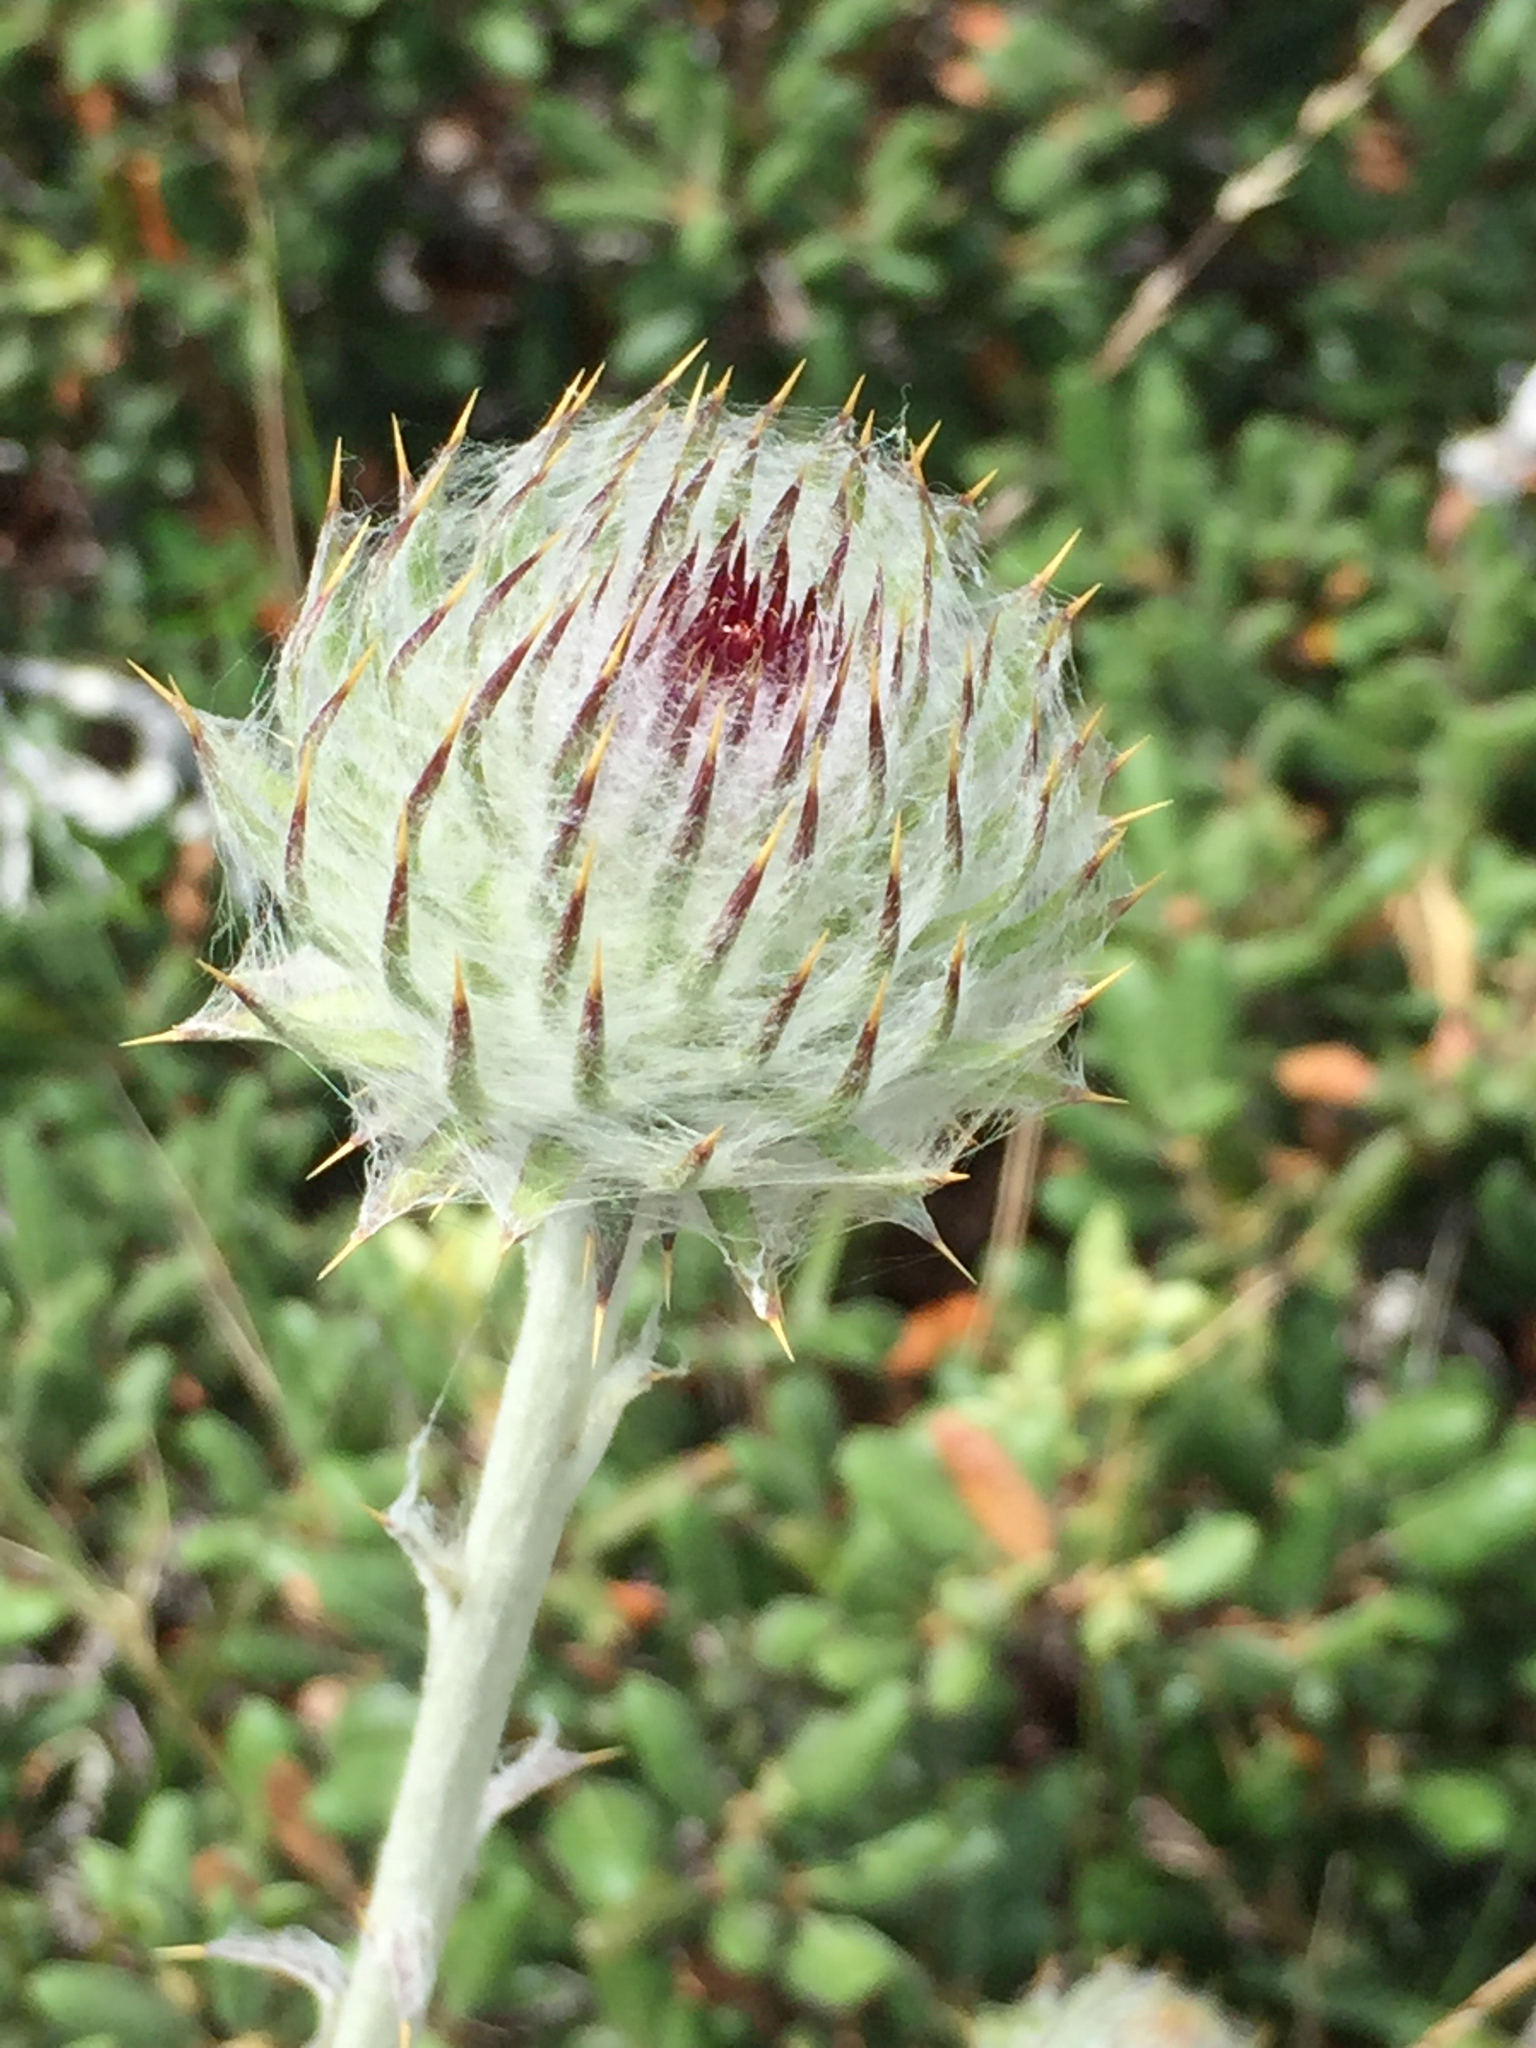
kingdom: Plantae
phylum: Tracheophyta
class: Magnoliopsida
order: Asterales
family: Asteraceae
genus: Cirsium
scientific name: Cirsium occidentale
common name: Western thistle
